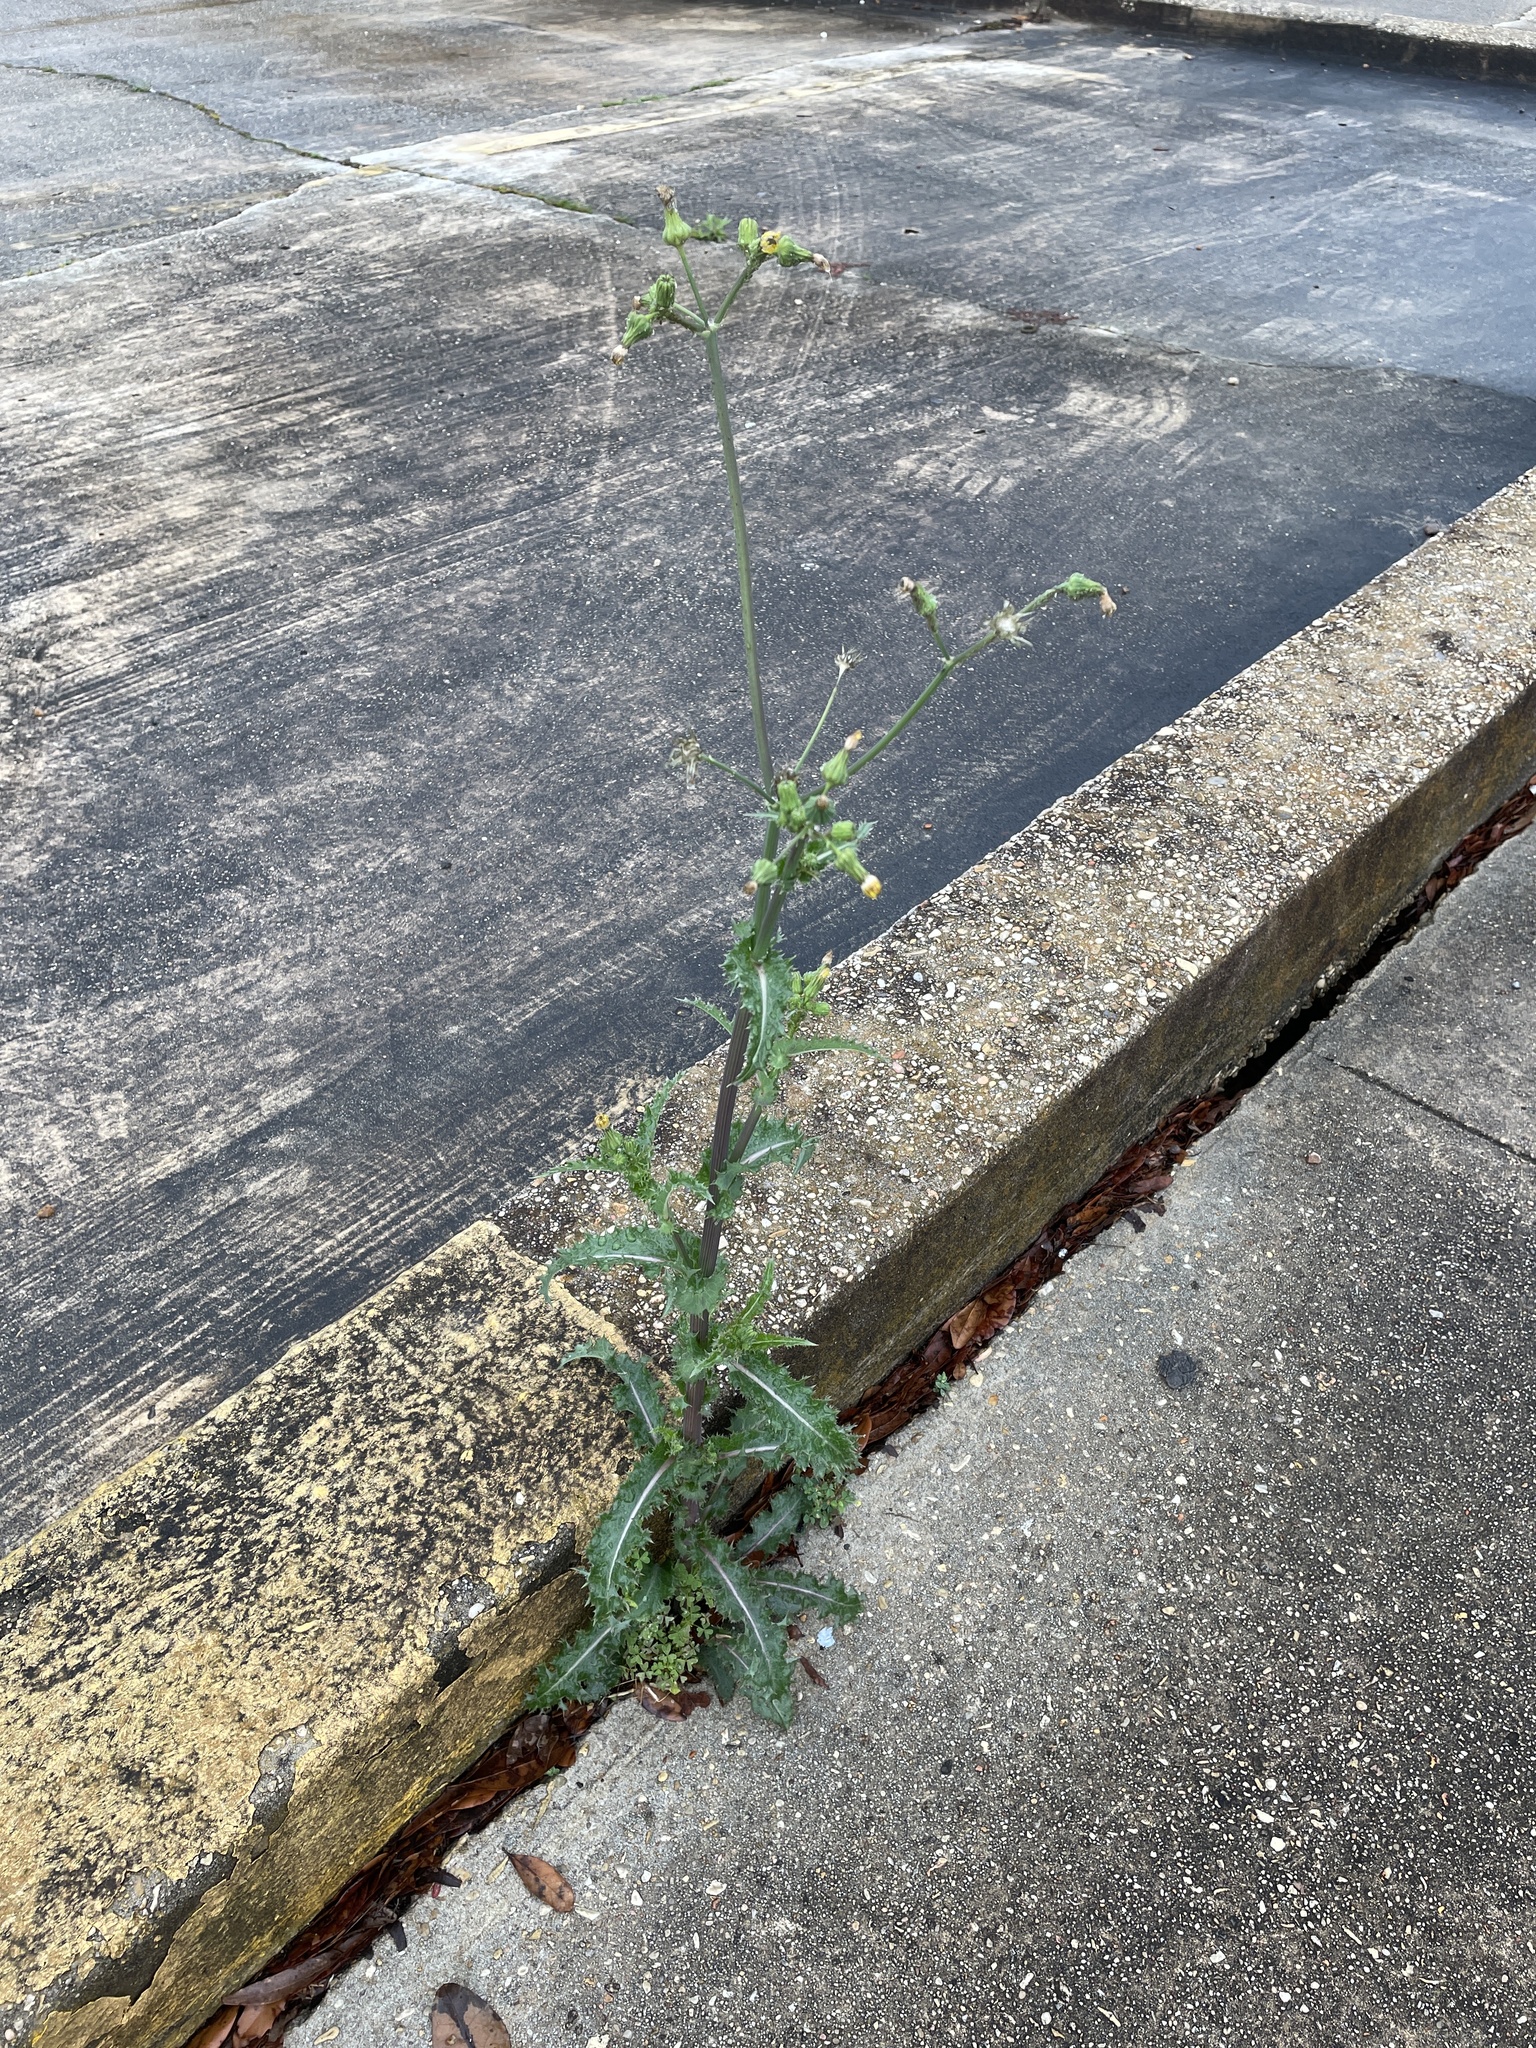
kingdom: Plantae
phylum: Tracheophyta
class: Magnoliopsida
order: Asterales
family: Asteraceae
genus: Sonchus
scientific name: Sonchus asper
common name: Prickly sow-thistle
